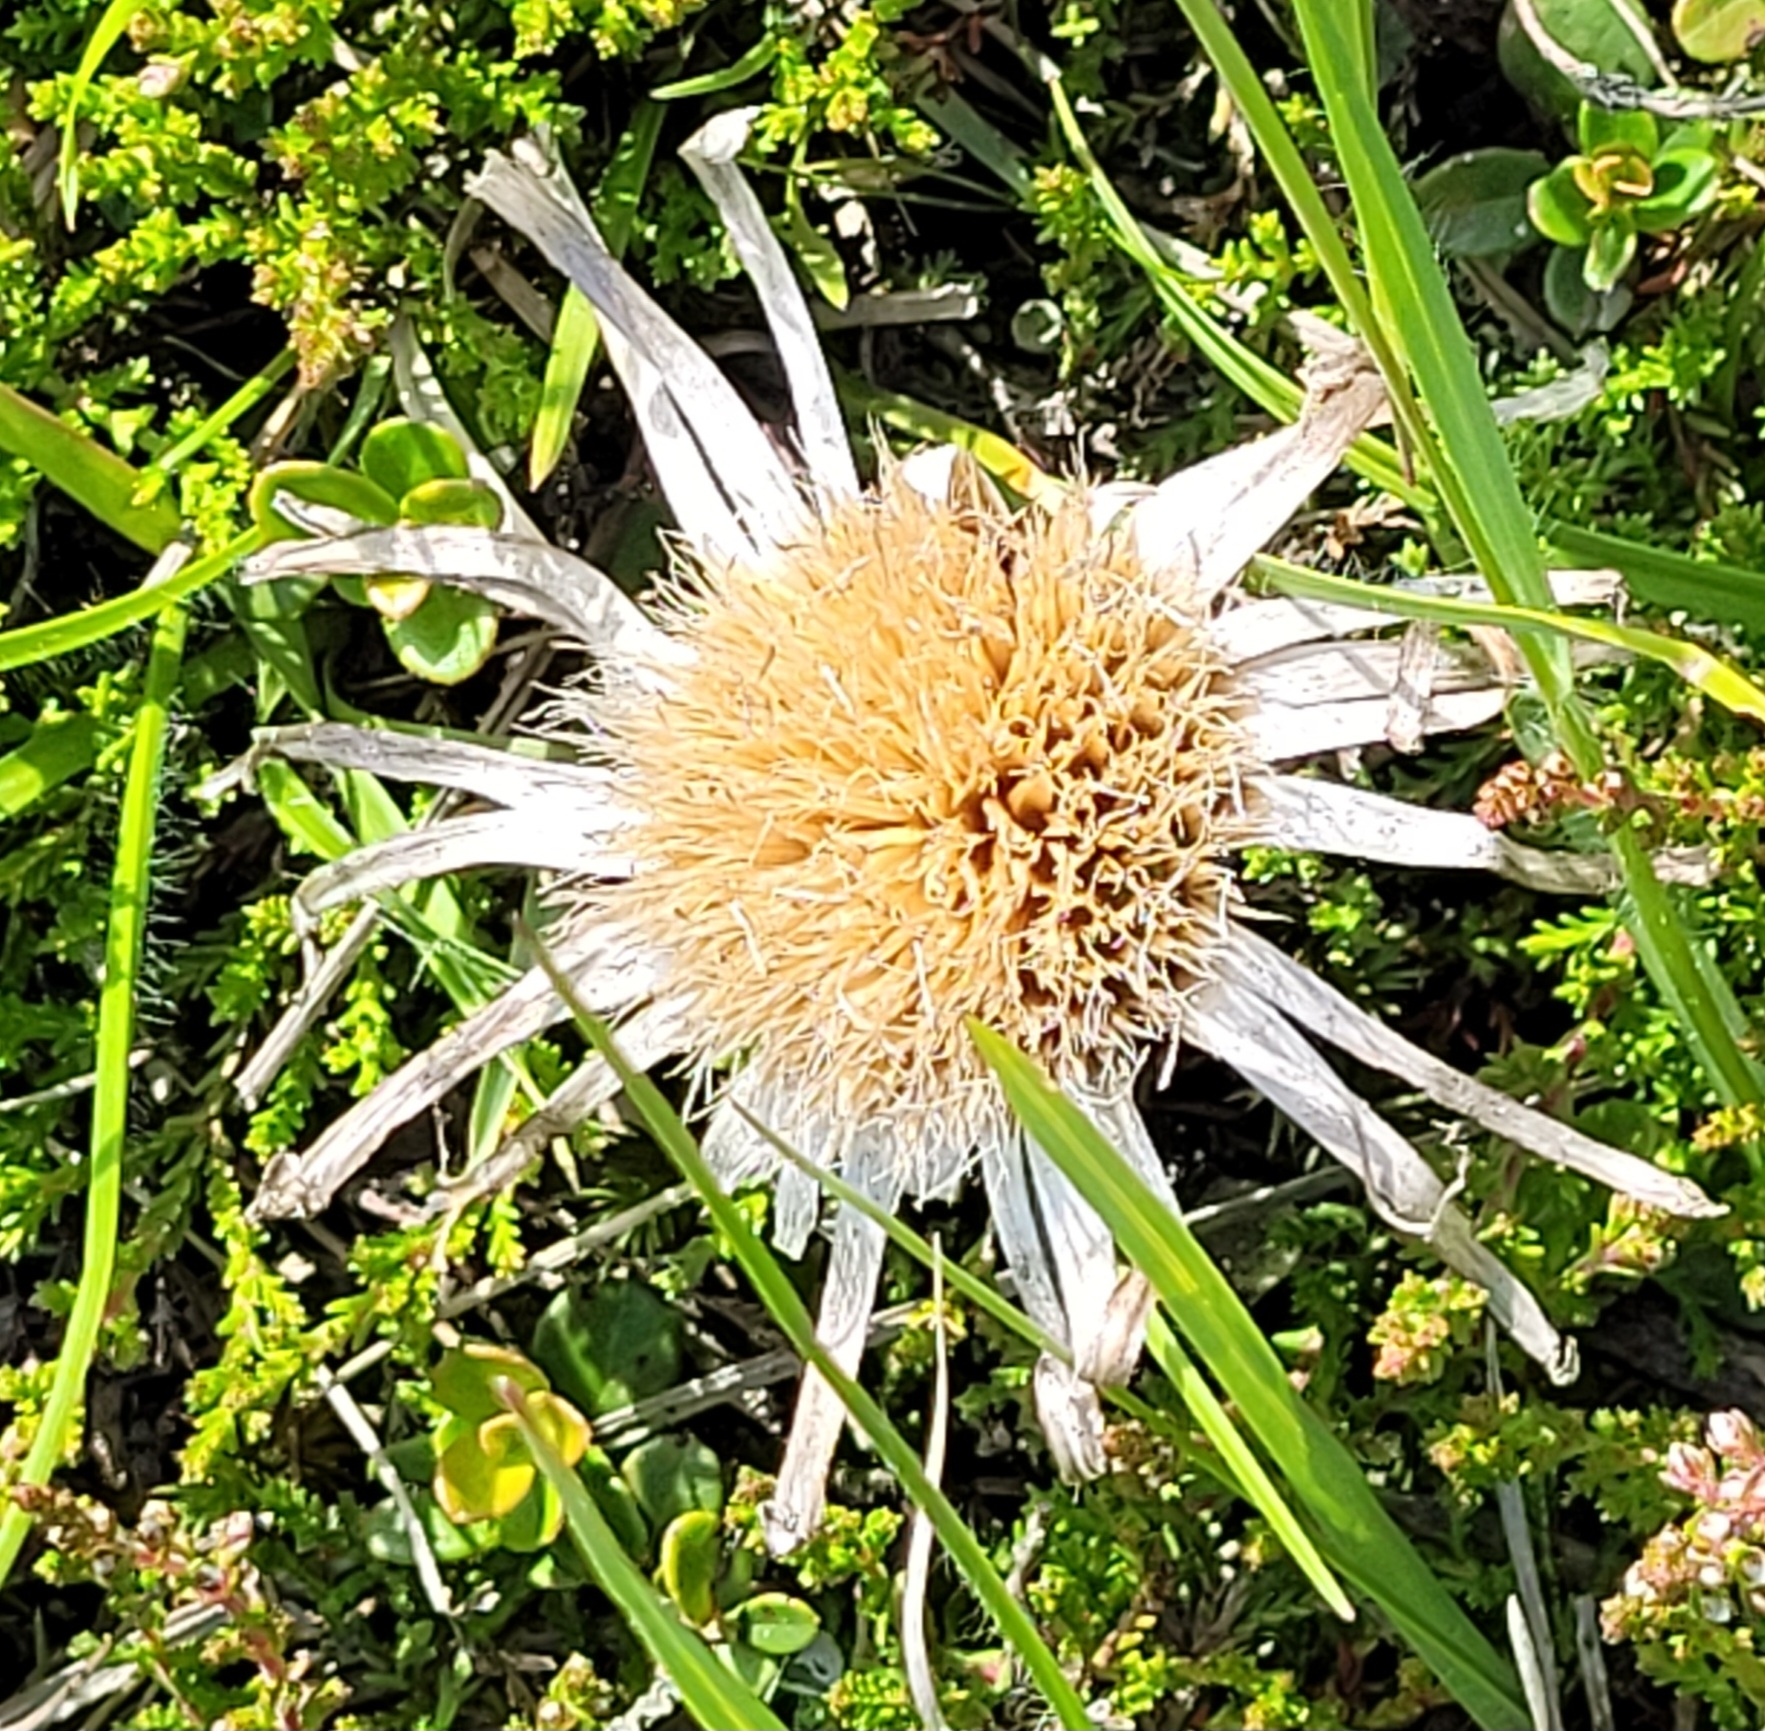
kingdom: Plantae
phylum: Tracheophyta
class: Magnoliopsida
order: Asterales
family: Asteraceae
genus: Carlina
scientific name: Carlina acaulis
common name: Stemless carline thistle
